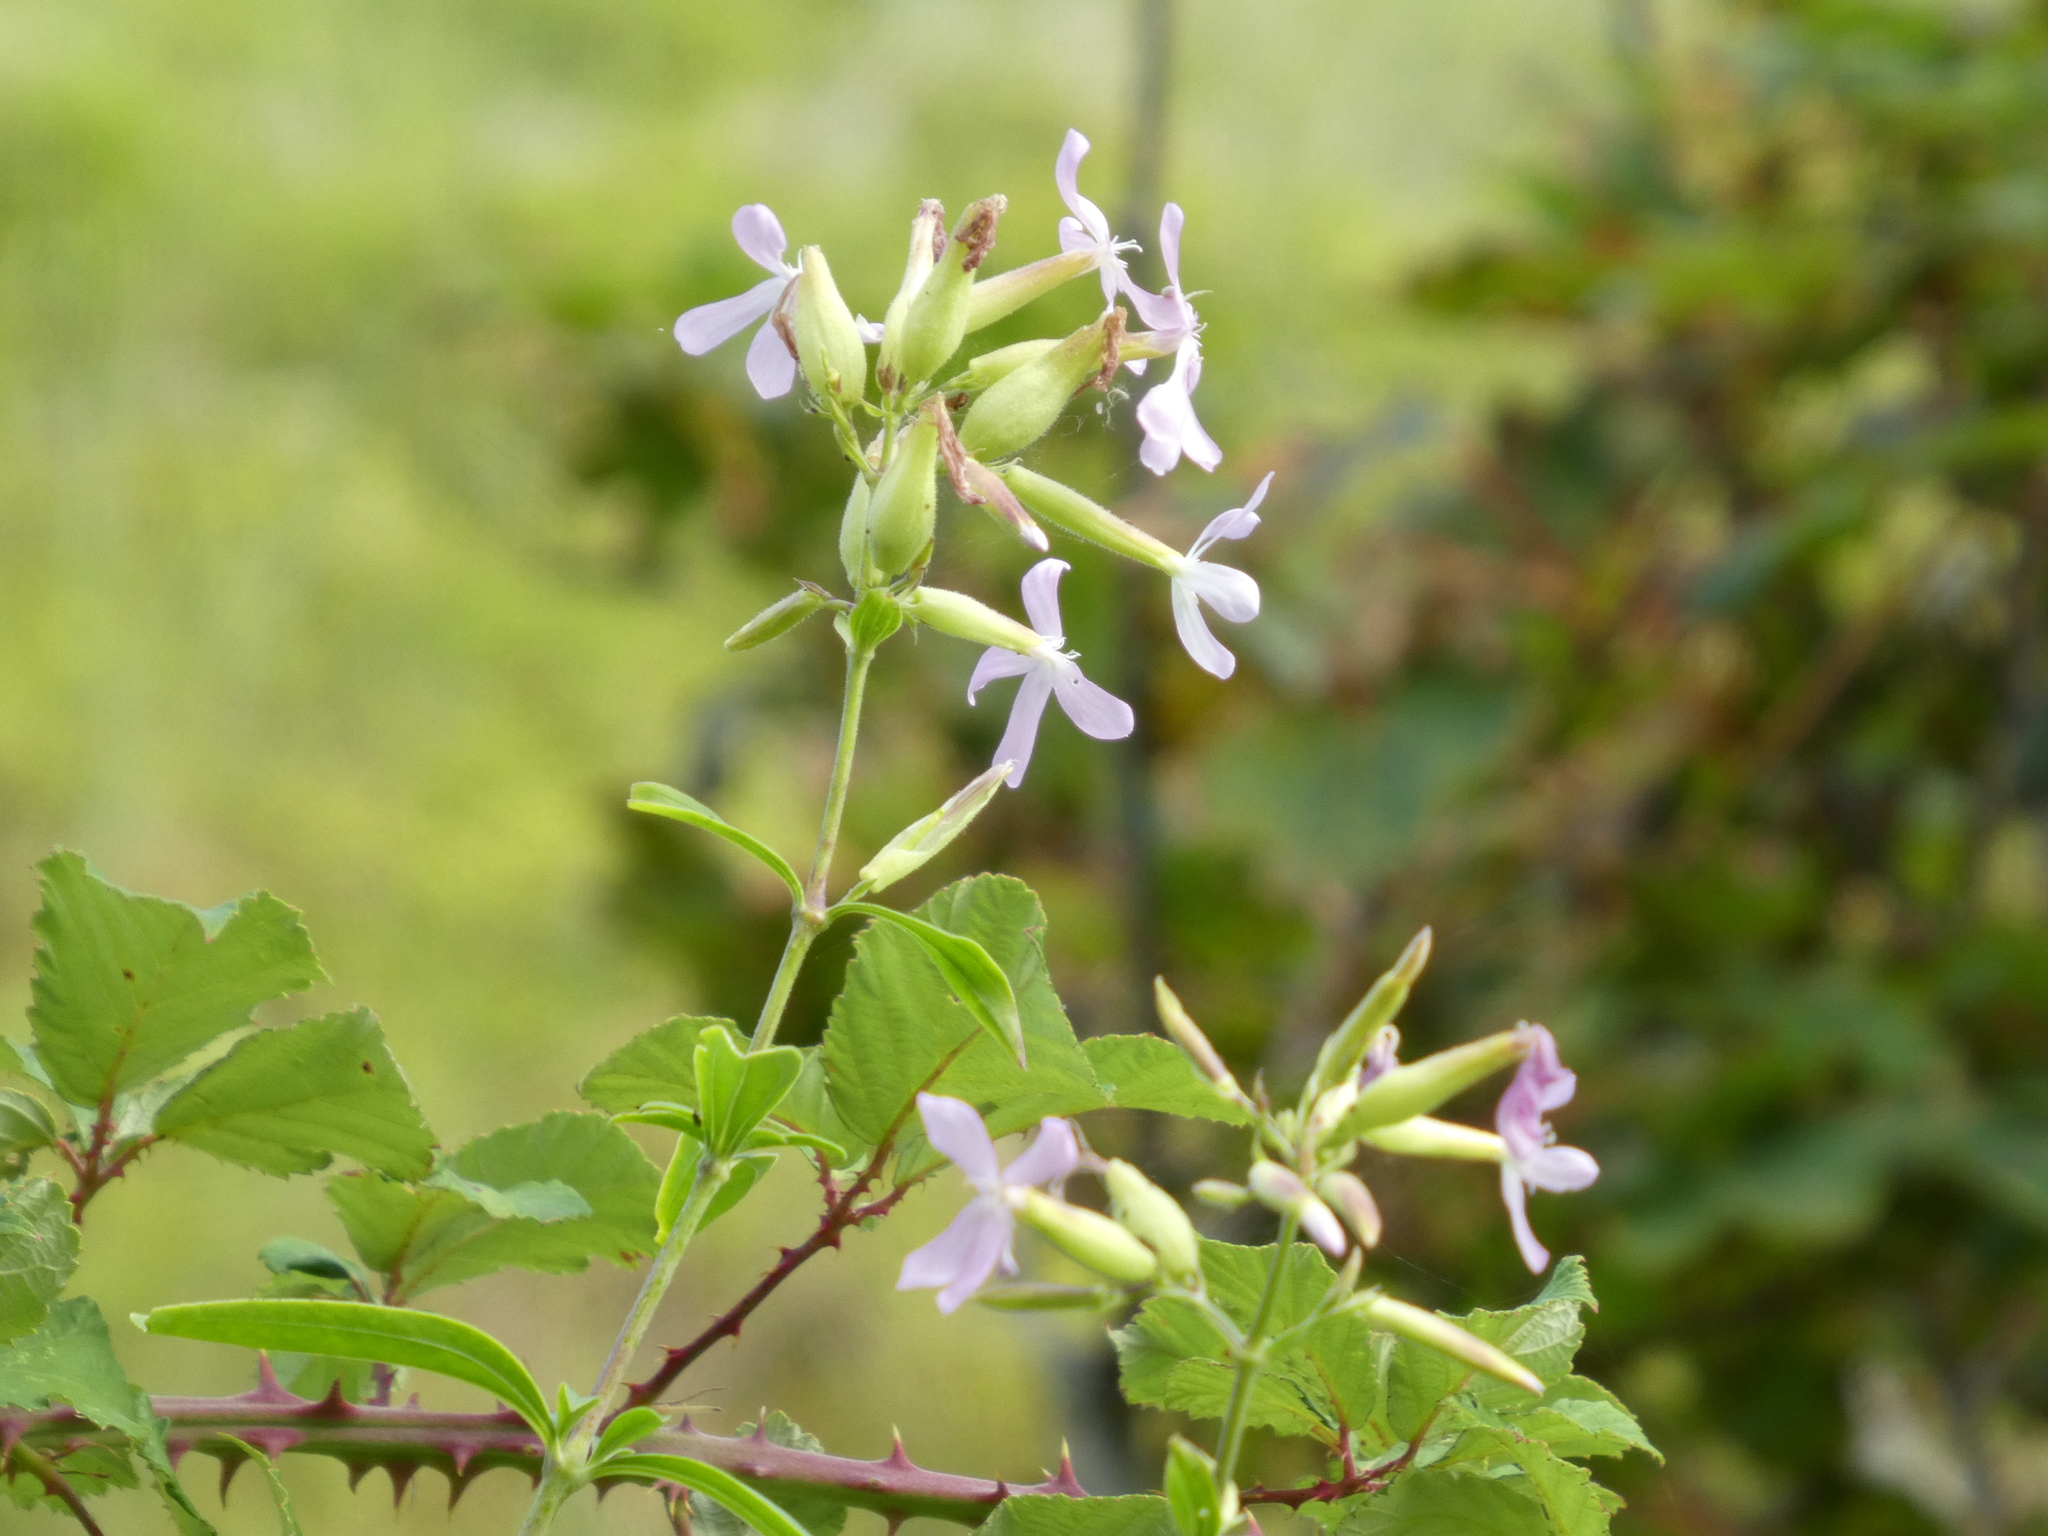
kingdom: Plantae
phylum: Tracheophyta
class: Magnoliopsida
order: Caryophyllales
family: Caryophyllaceae
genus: Saponaria
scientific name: Saponaria officinalis
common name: Soapwort
